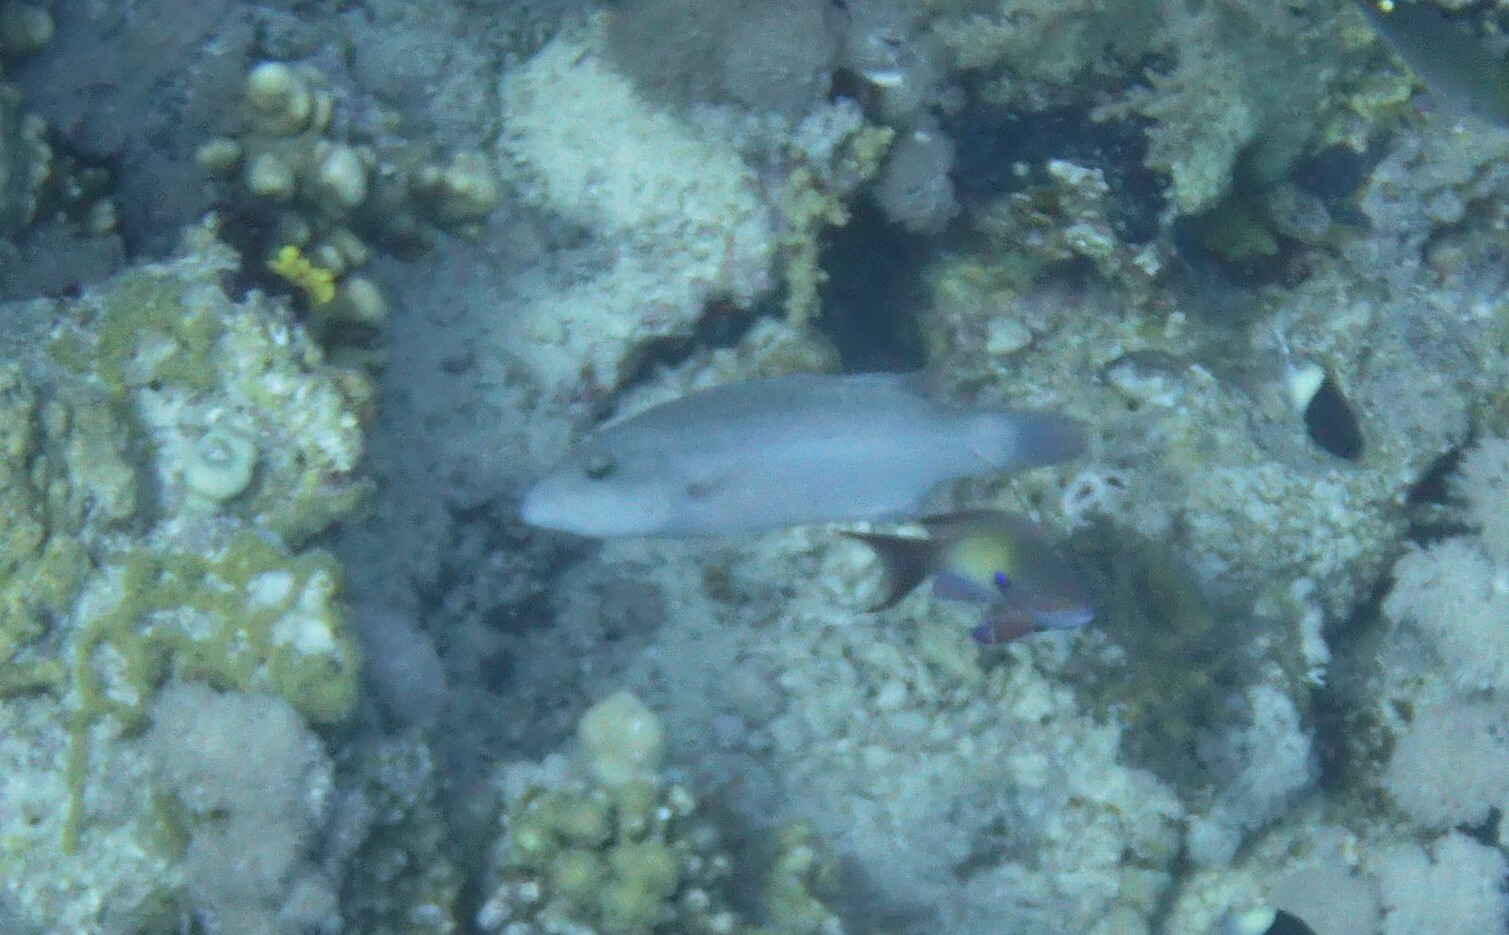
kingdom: Animalia
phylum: Chordata
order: Perciformes
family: Serranidae
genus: Pseudanthias
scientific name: Pseudanthias squamipinnis
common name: Scalefin anthias
